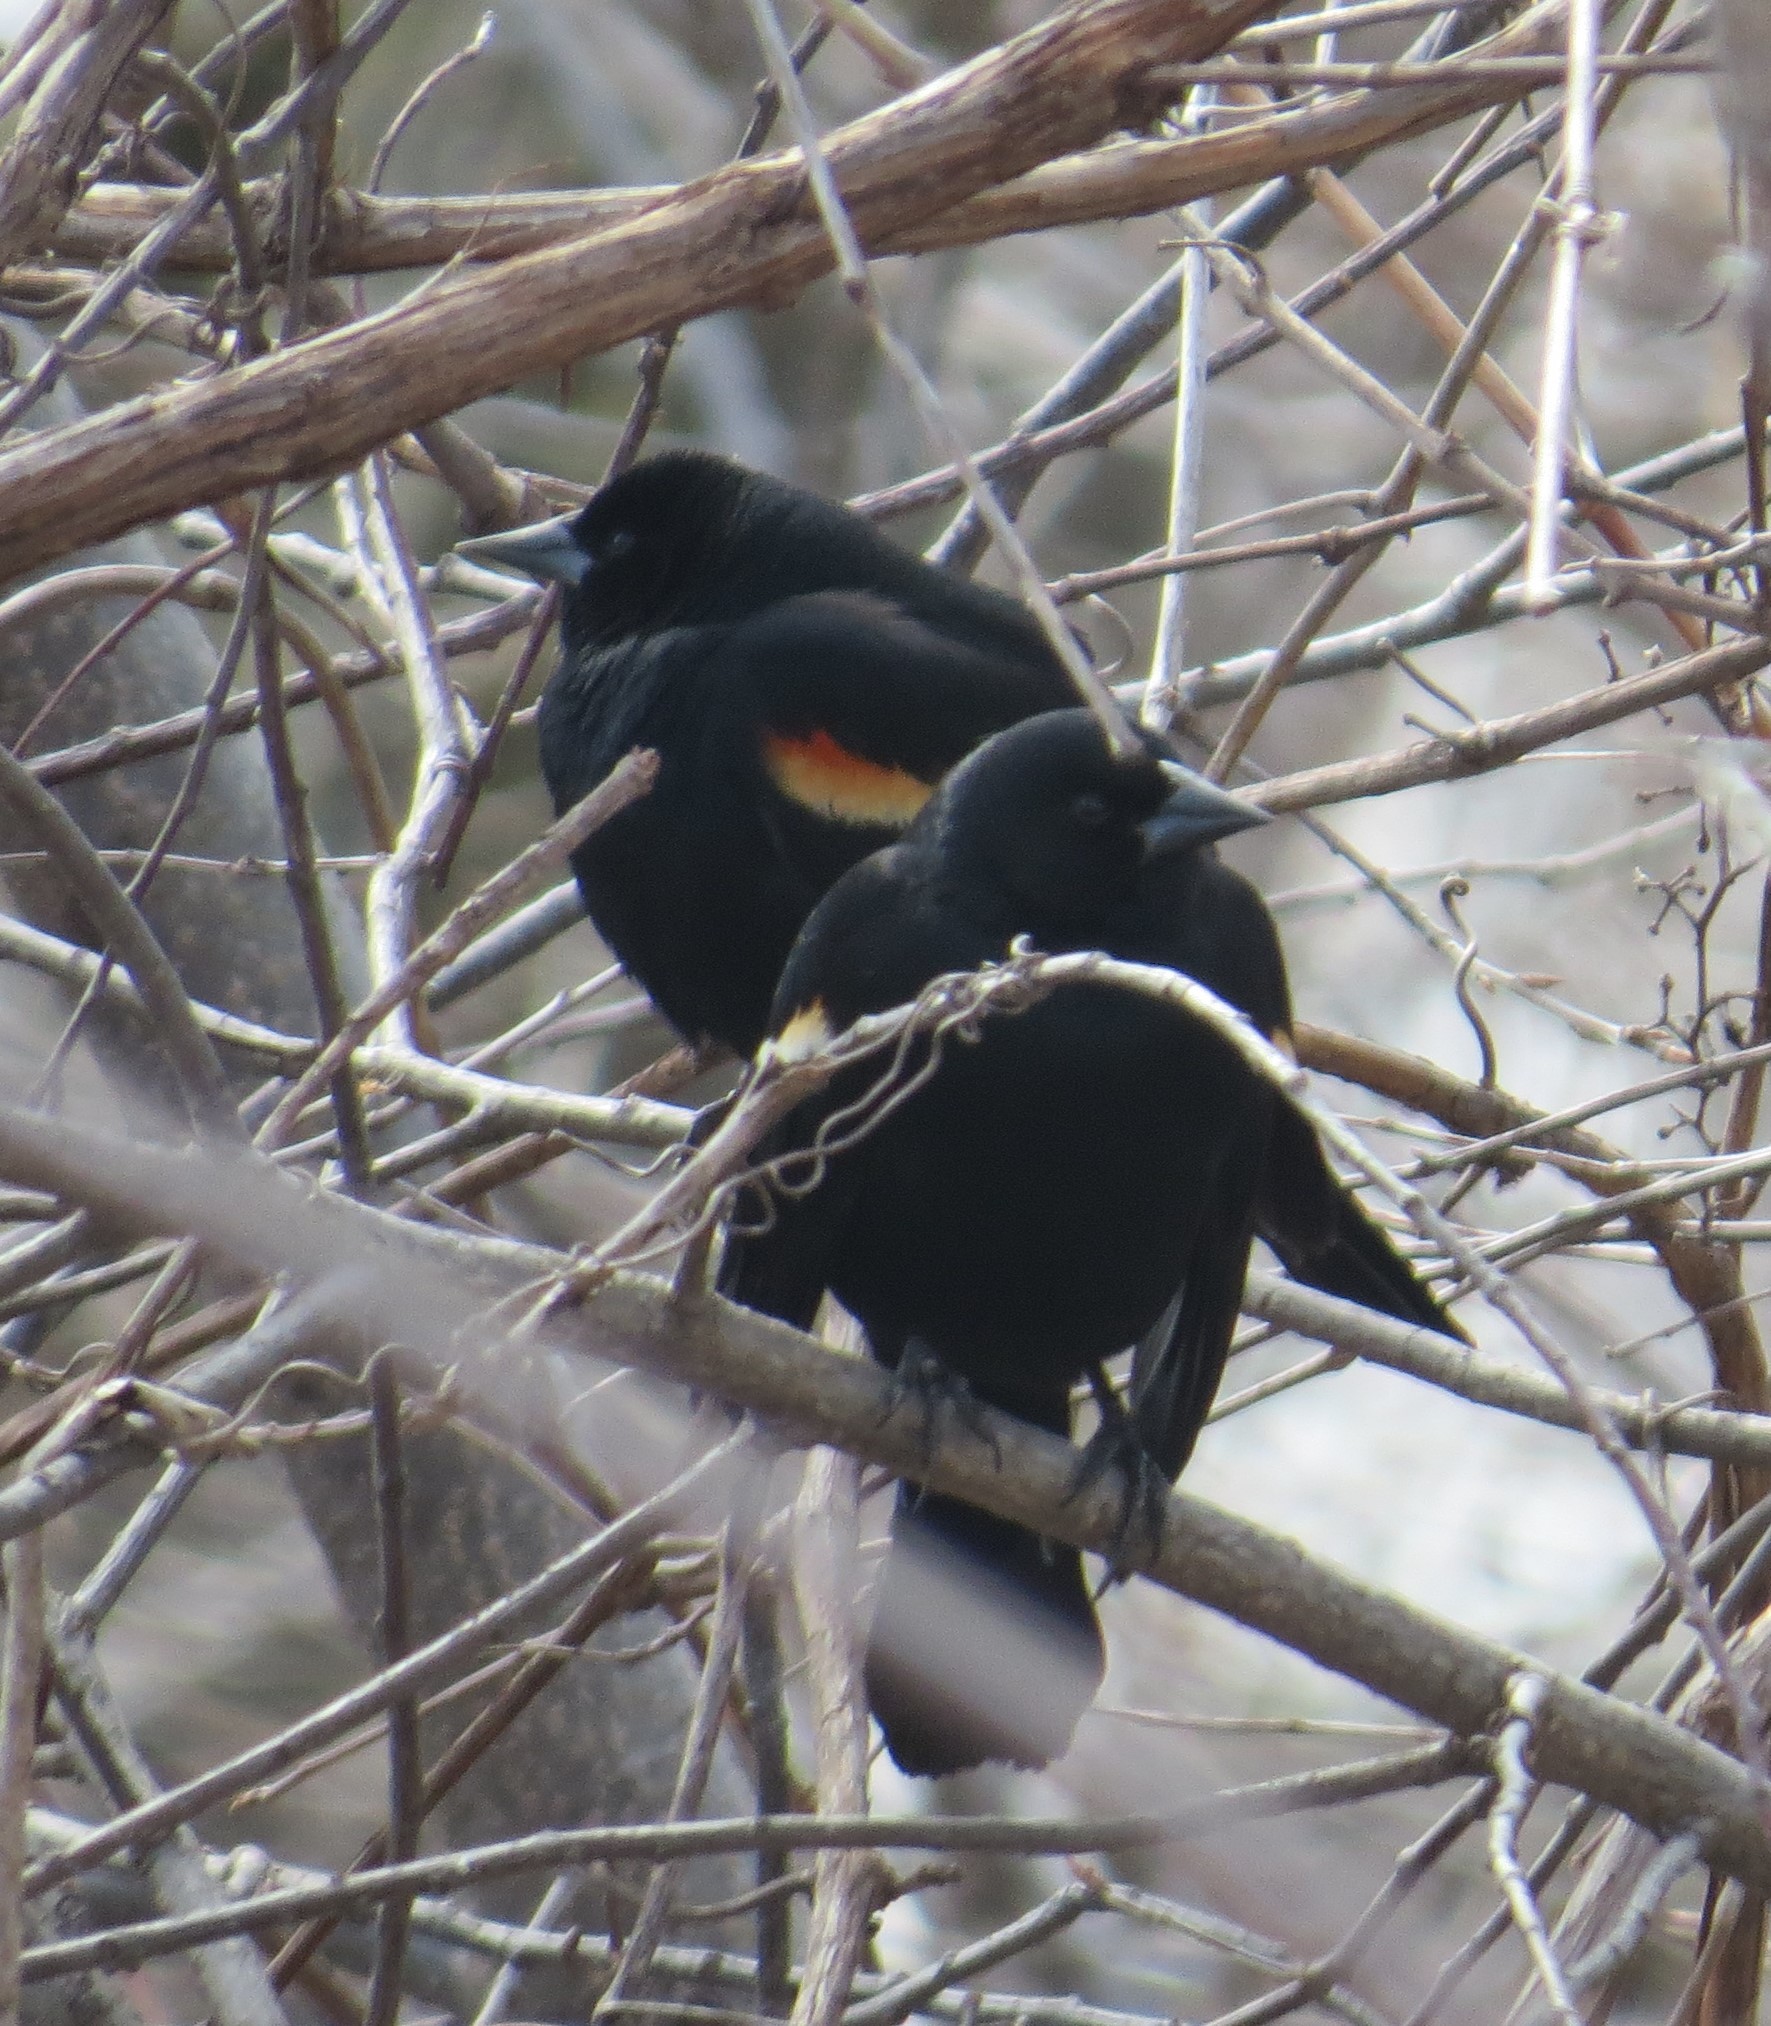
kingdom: Animalia
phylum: Chordata
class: Aves
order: Passeriformes
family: Icteridae
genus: Agelaius
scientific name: Agelaius phoeniceus
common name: Red-winged blackbird
